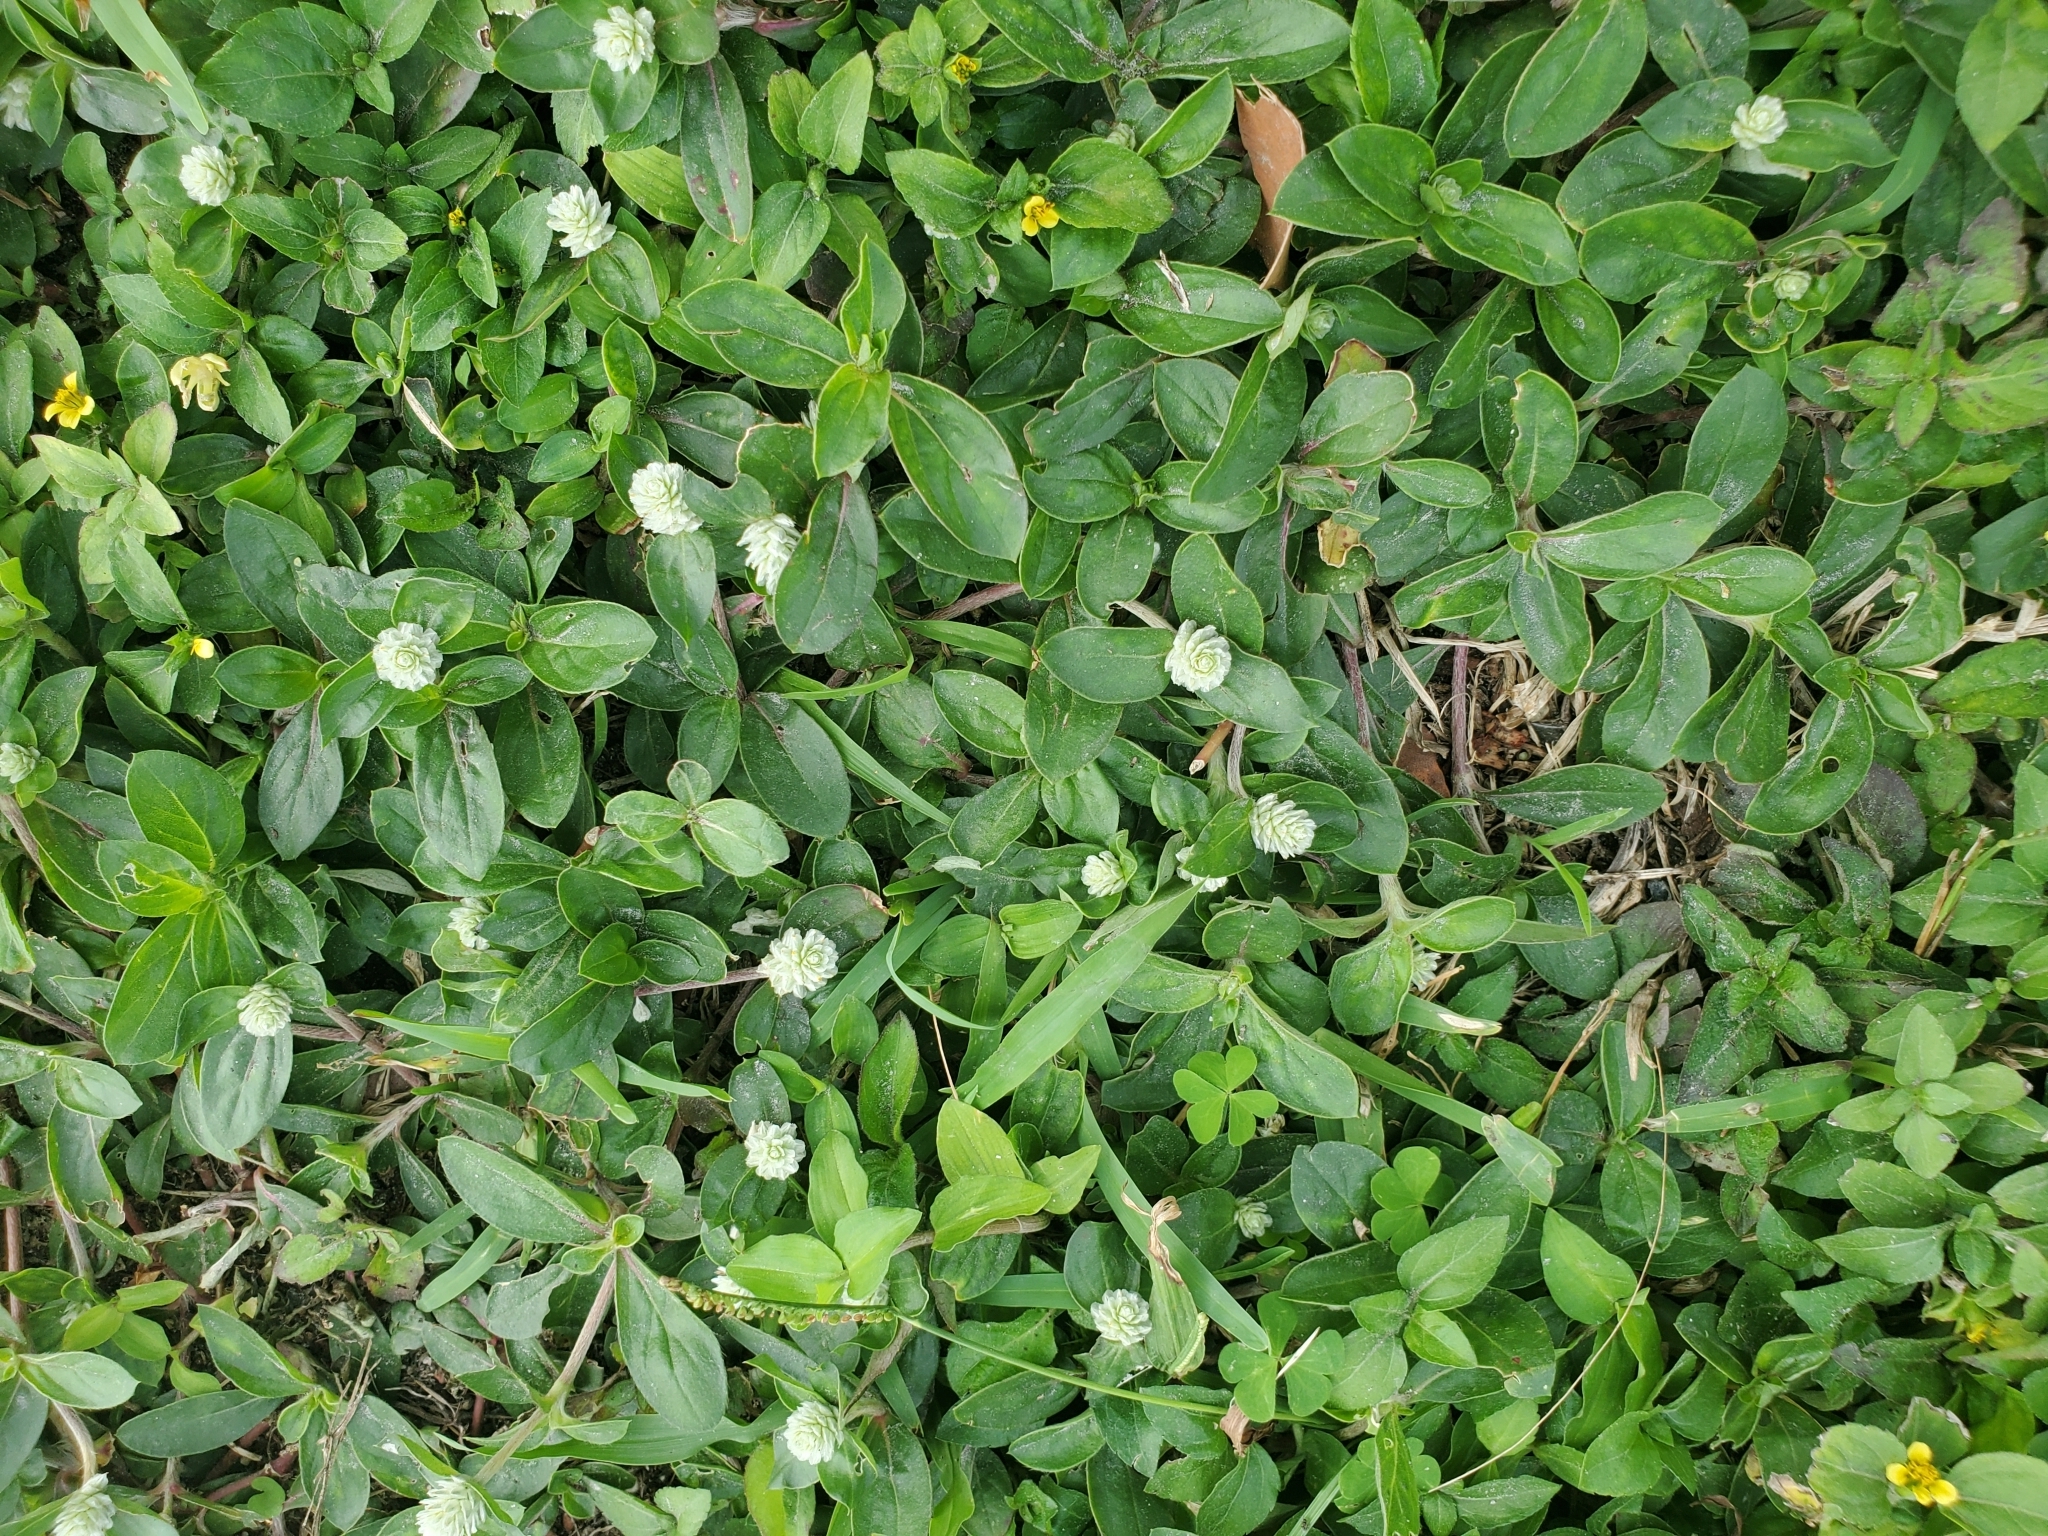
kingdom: Plantae
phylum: Tracheophyta
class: Magnoliopsida
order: Caryophyllales
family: Amaranthaceae
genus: Gomphrena
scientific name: Gomphrena serrata
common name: Arrasa con todo
